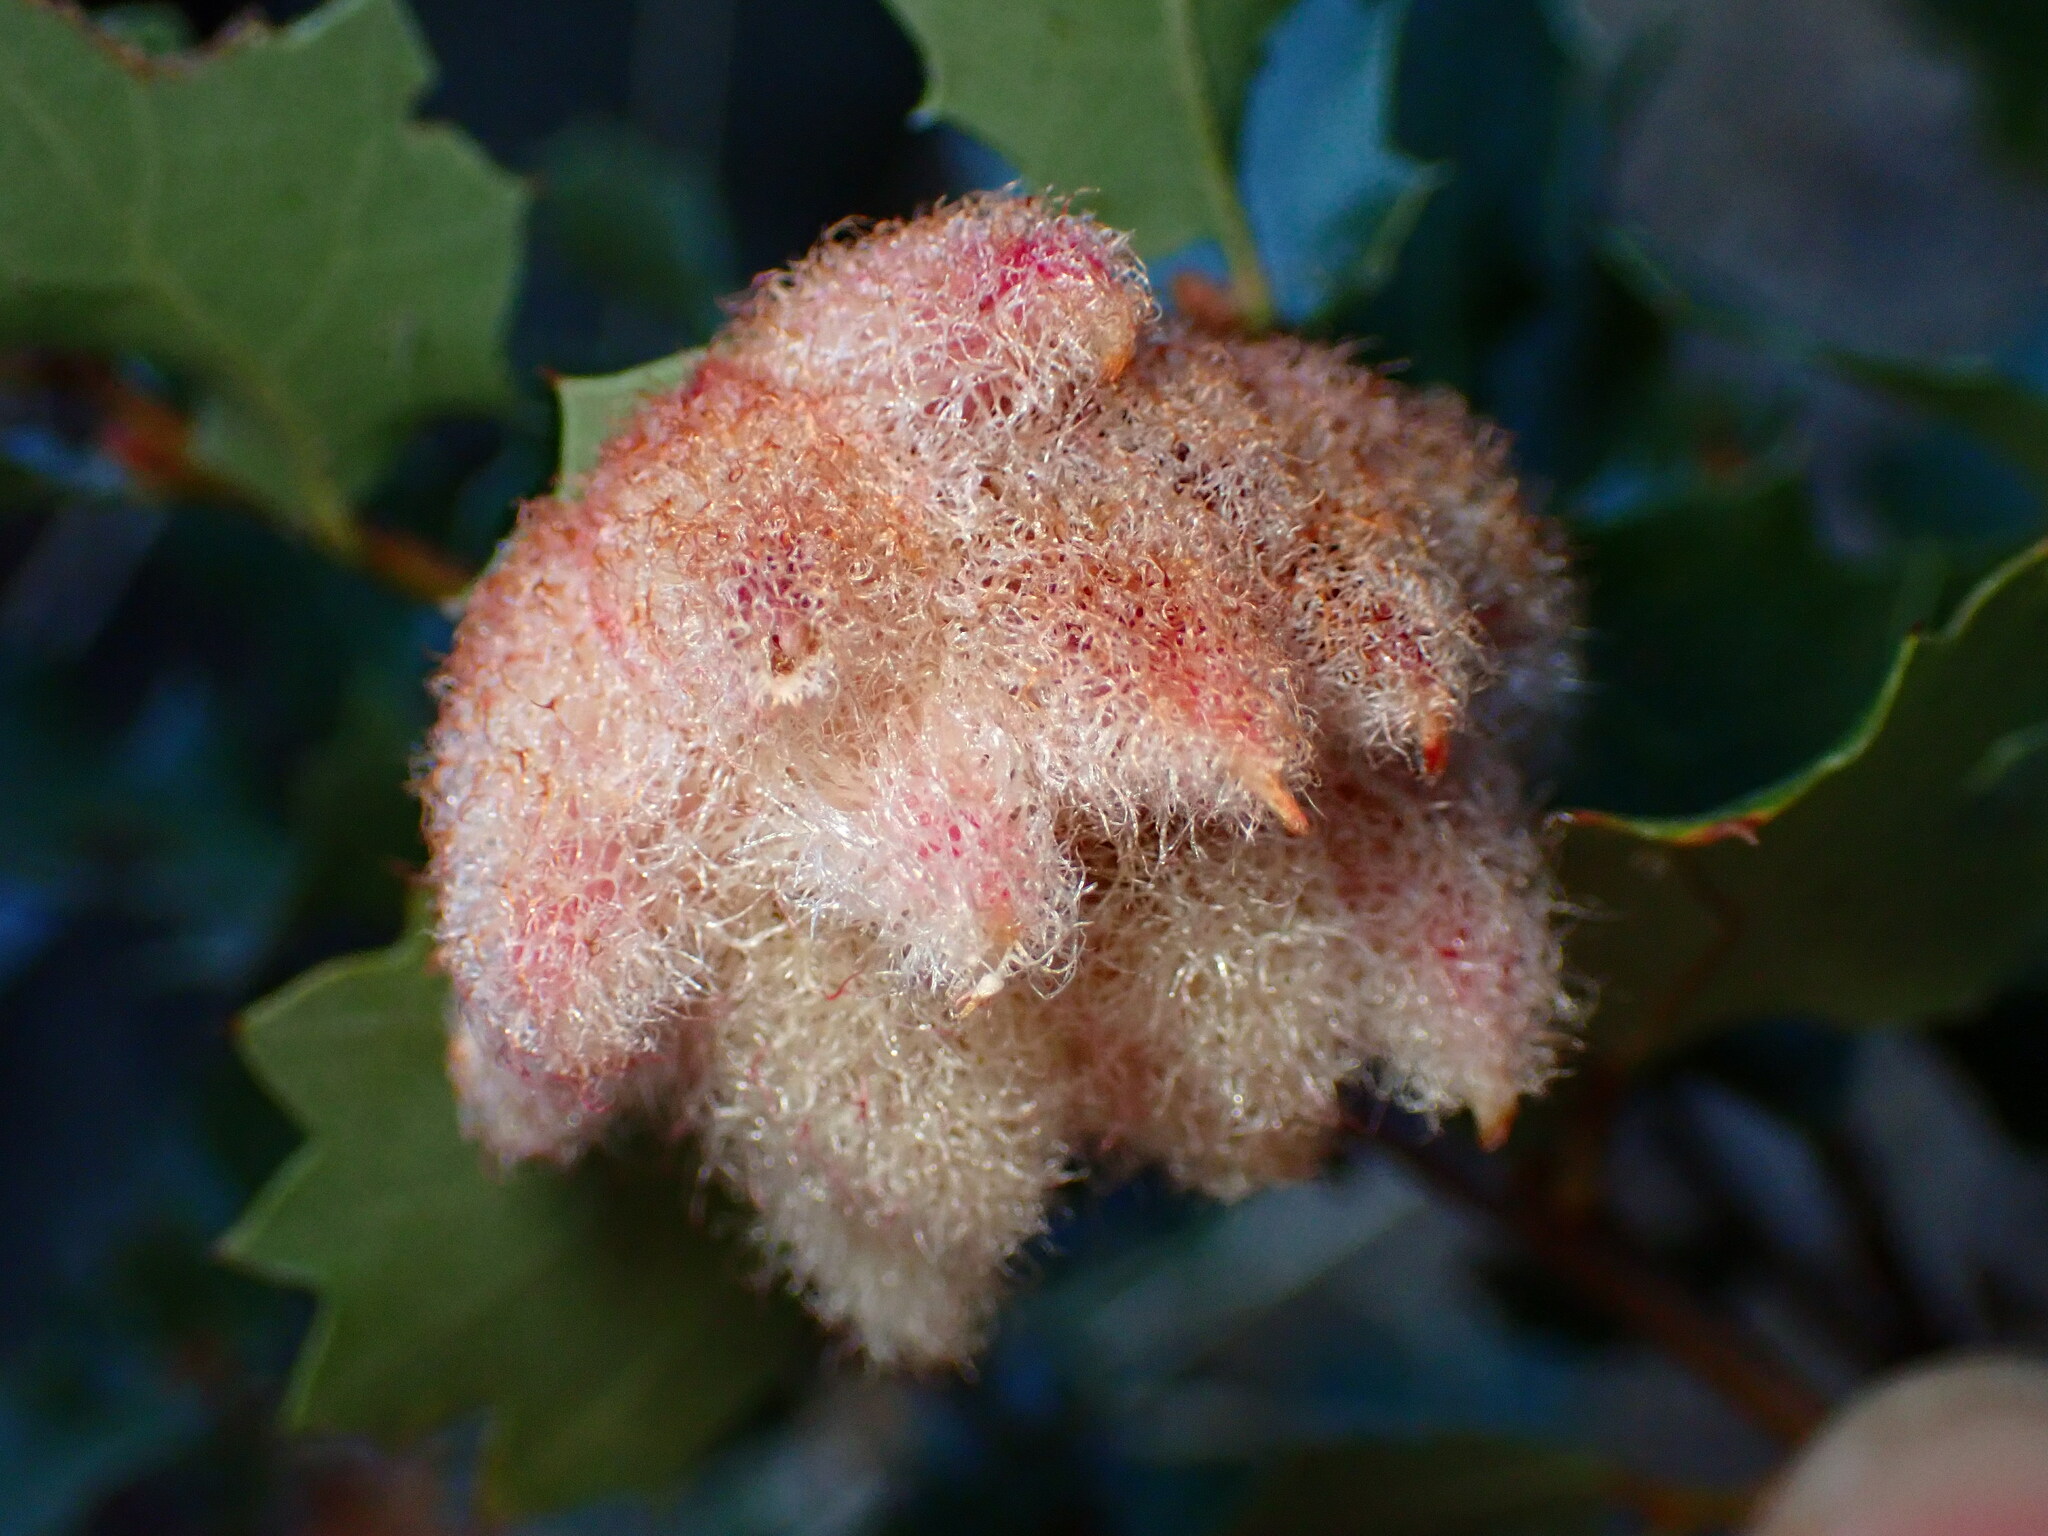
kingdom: Animalia
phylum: Arthropoda
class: Insecta
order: Hymenoptera
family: Cynipidae
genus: Andricus
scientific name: Andricus
